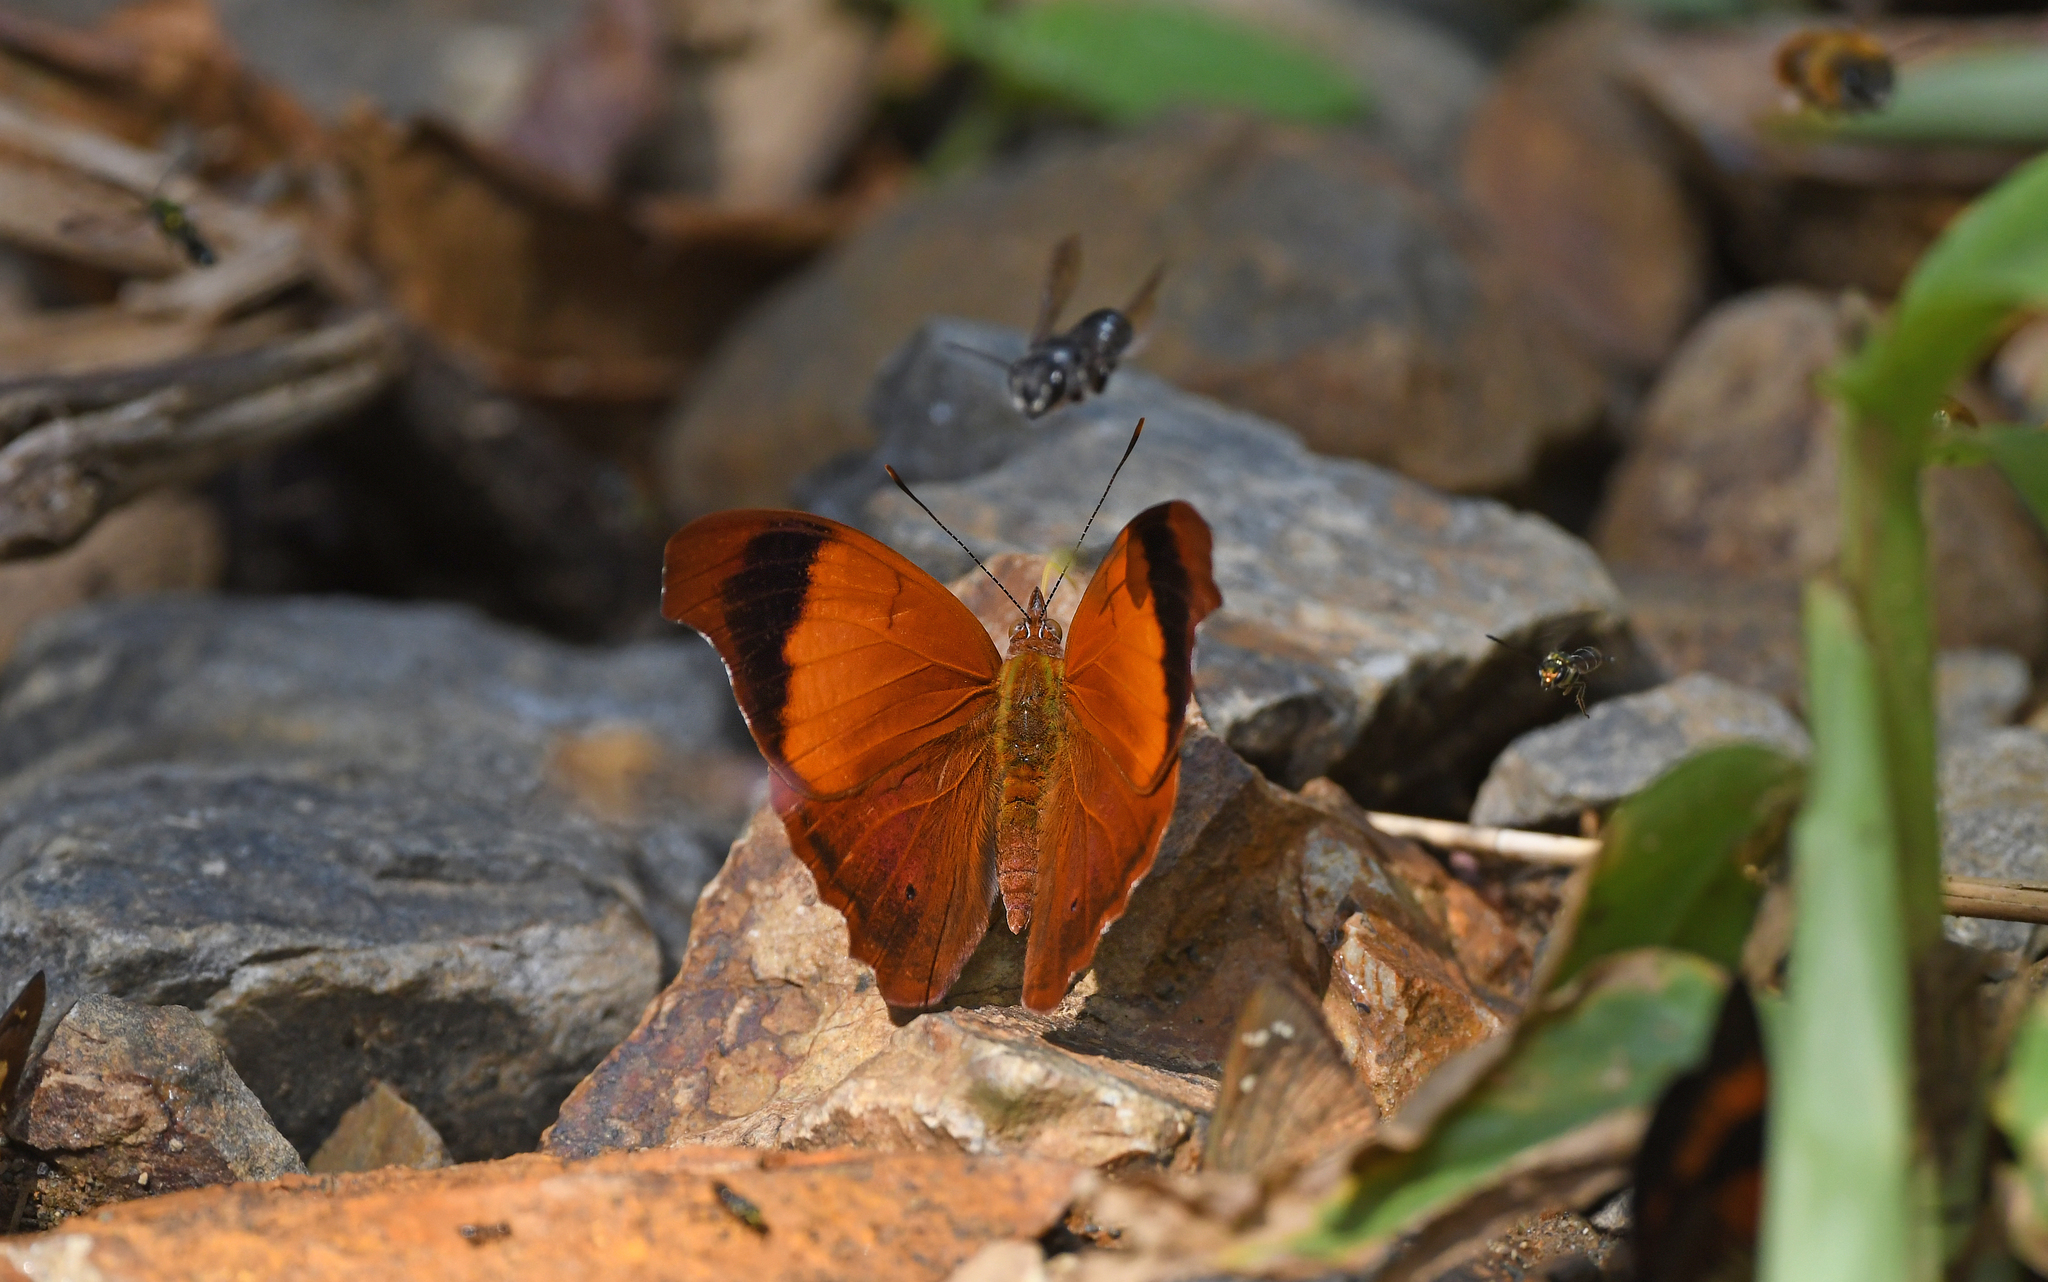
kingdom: Animalia
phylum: Arthropoda
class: Insecta
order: Lepidoptera
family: Nymphalidae
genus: Temenis
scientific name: Temenis laothoe
